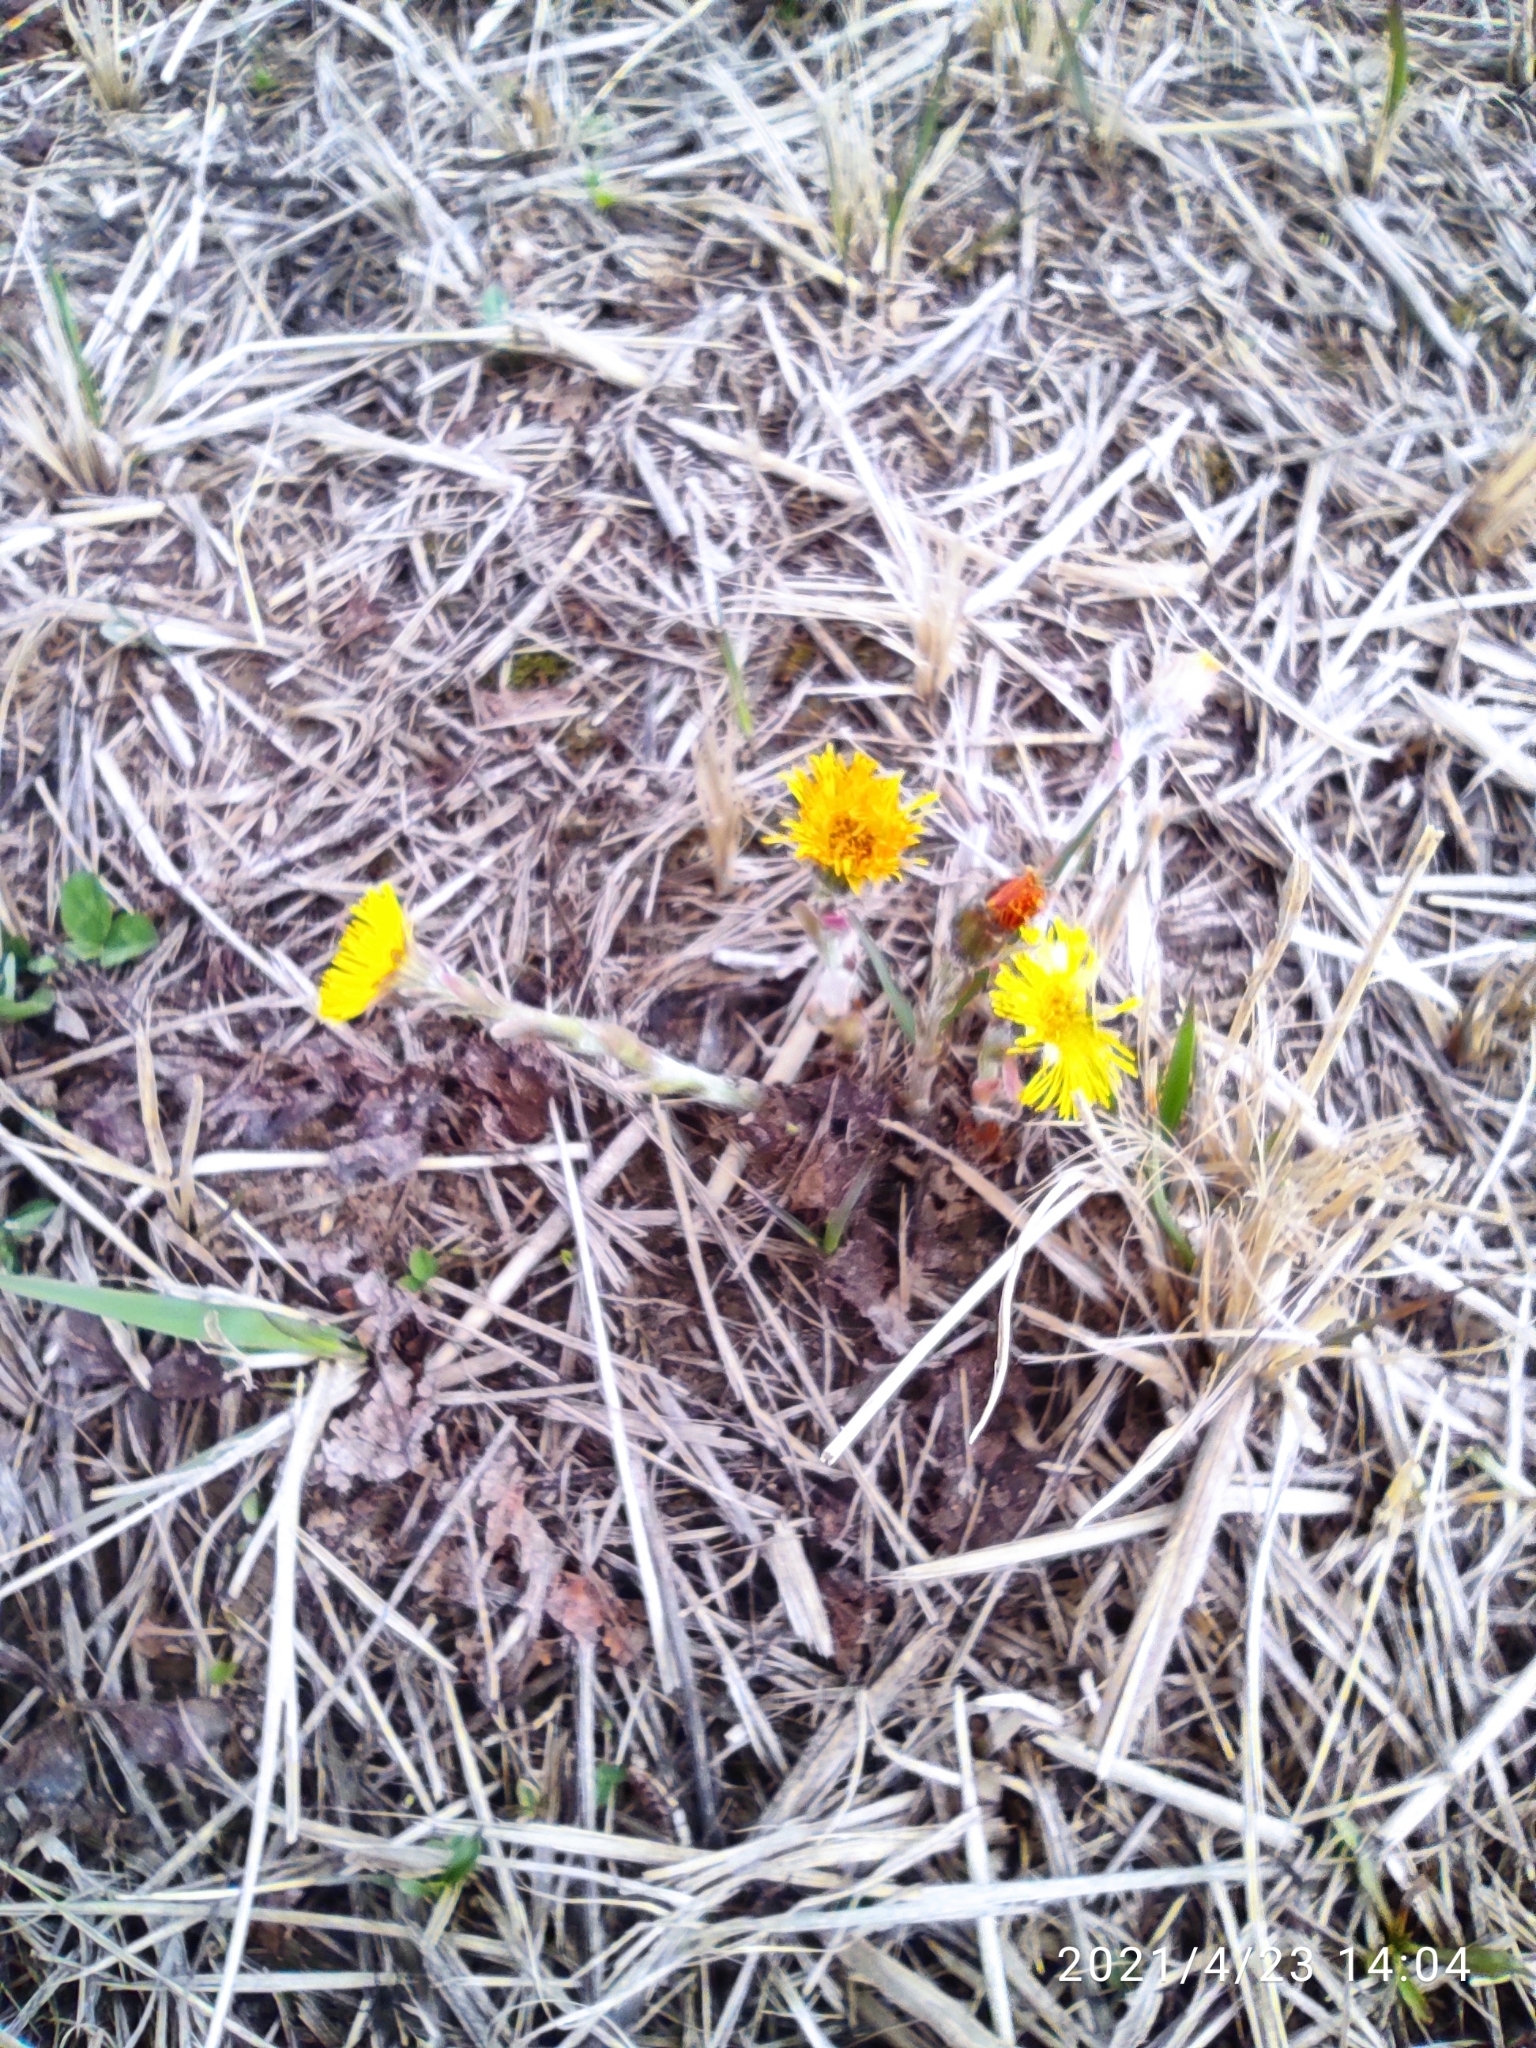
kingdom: Plantae
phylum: Tracheophyta
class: Magnoliopsida
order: Asterales
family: Asteraceae
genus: Tussilago
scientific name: Tussilago farfara
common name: Coltsfoot
